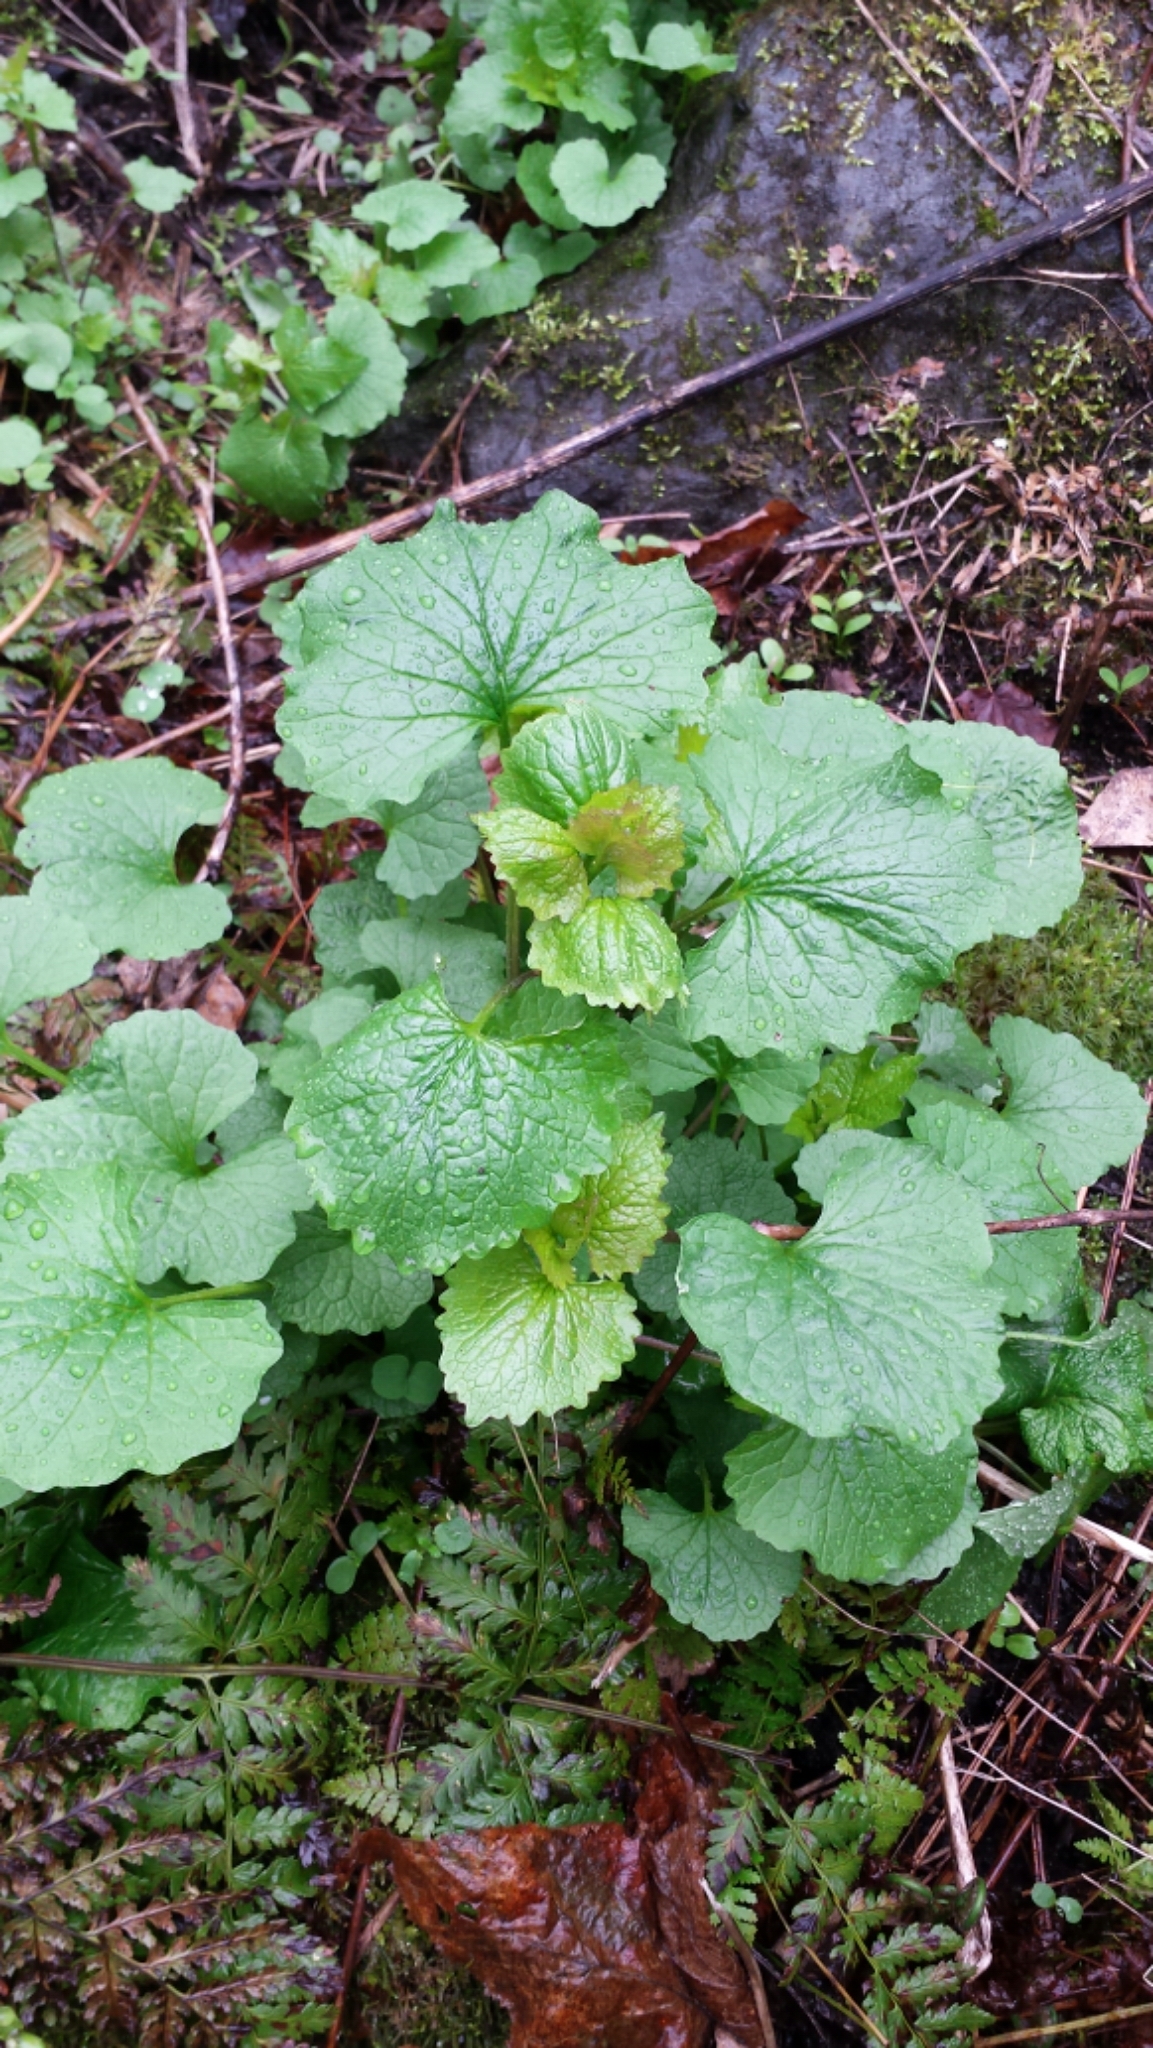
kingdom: Plantae
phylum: Tracheophyta
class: Magnoliopsida
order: Brassicales
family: Brassicaceae
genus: Alliaria
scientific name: Alliaria petiolata
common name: Garlic mustard
